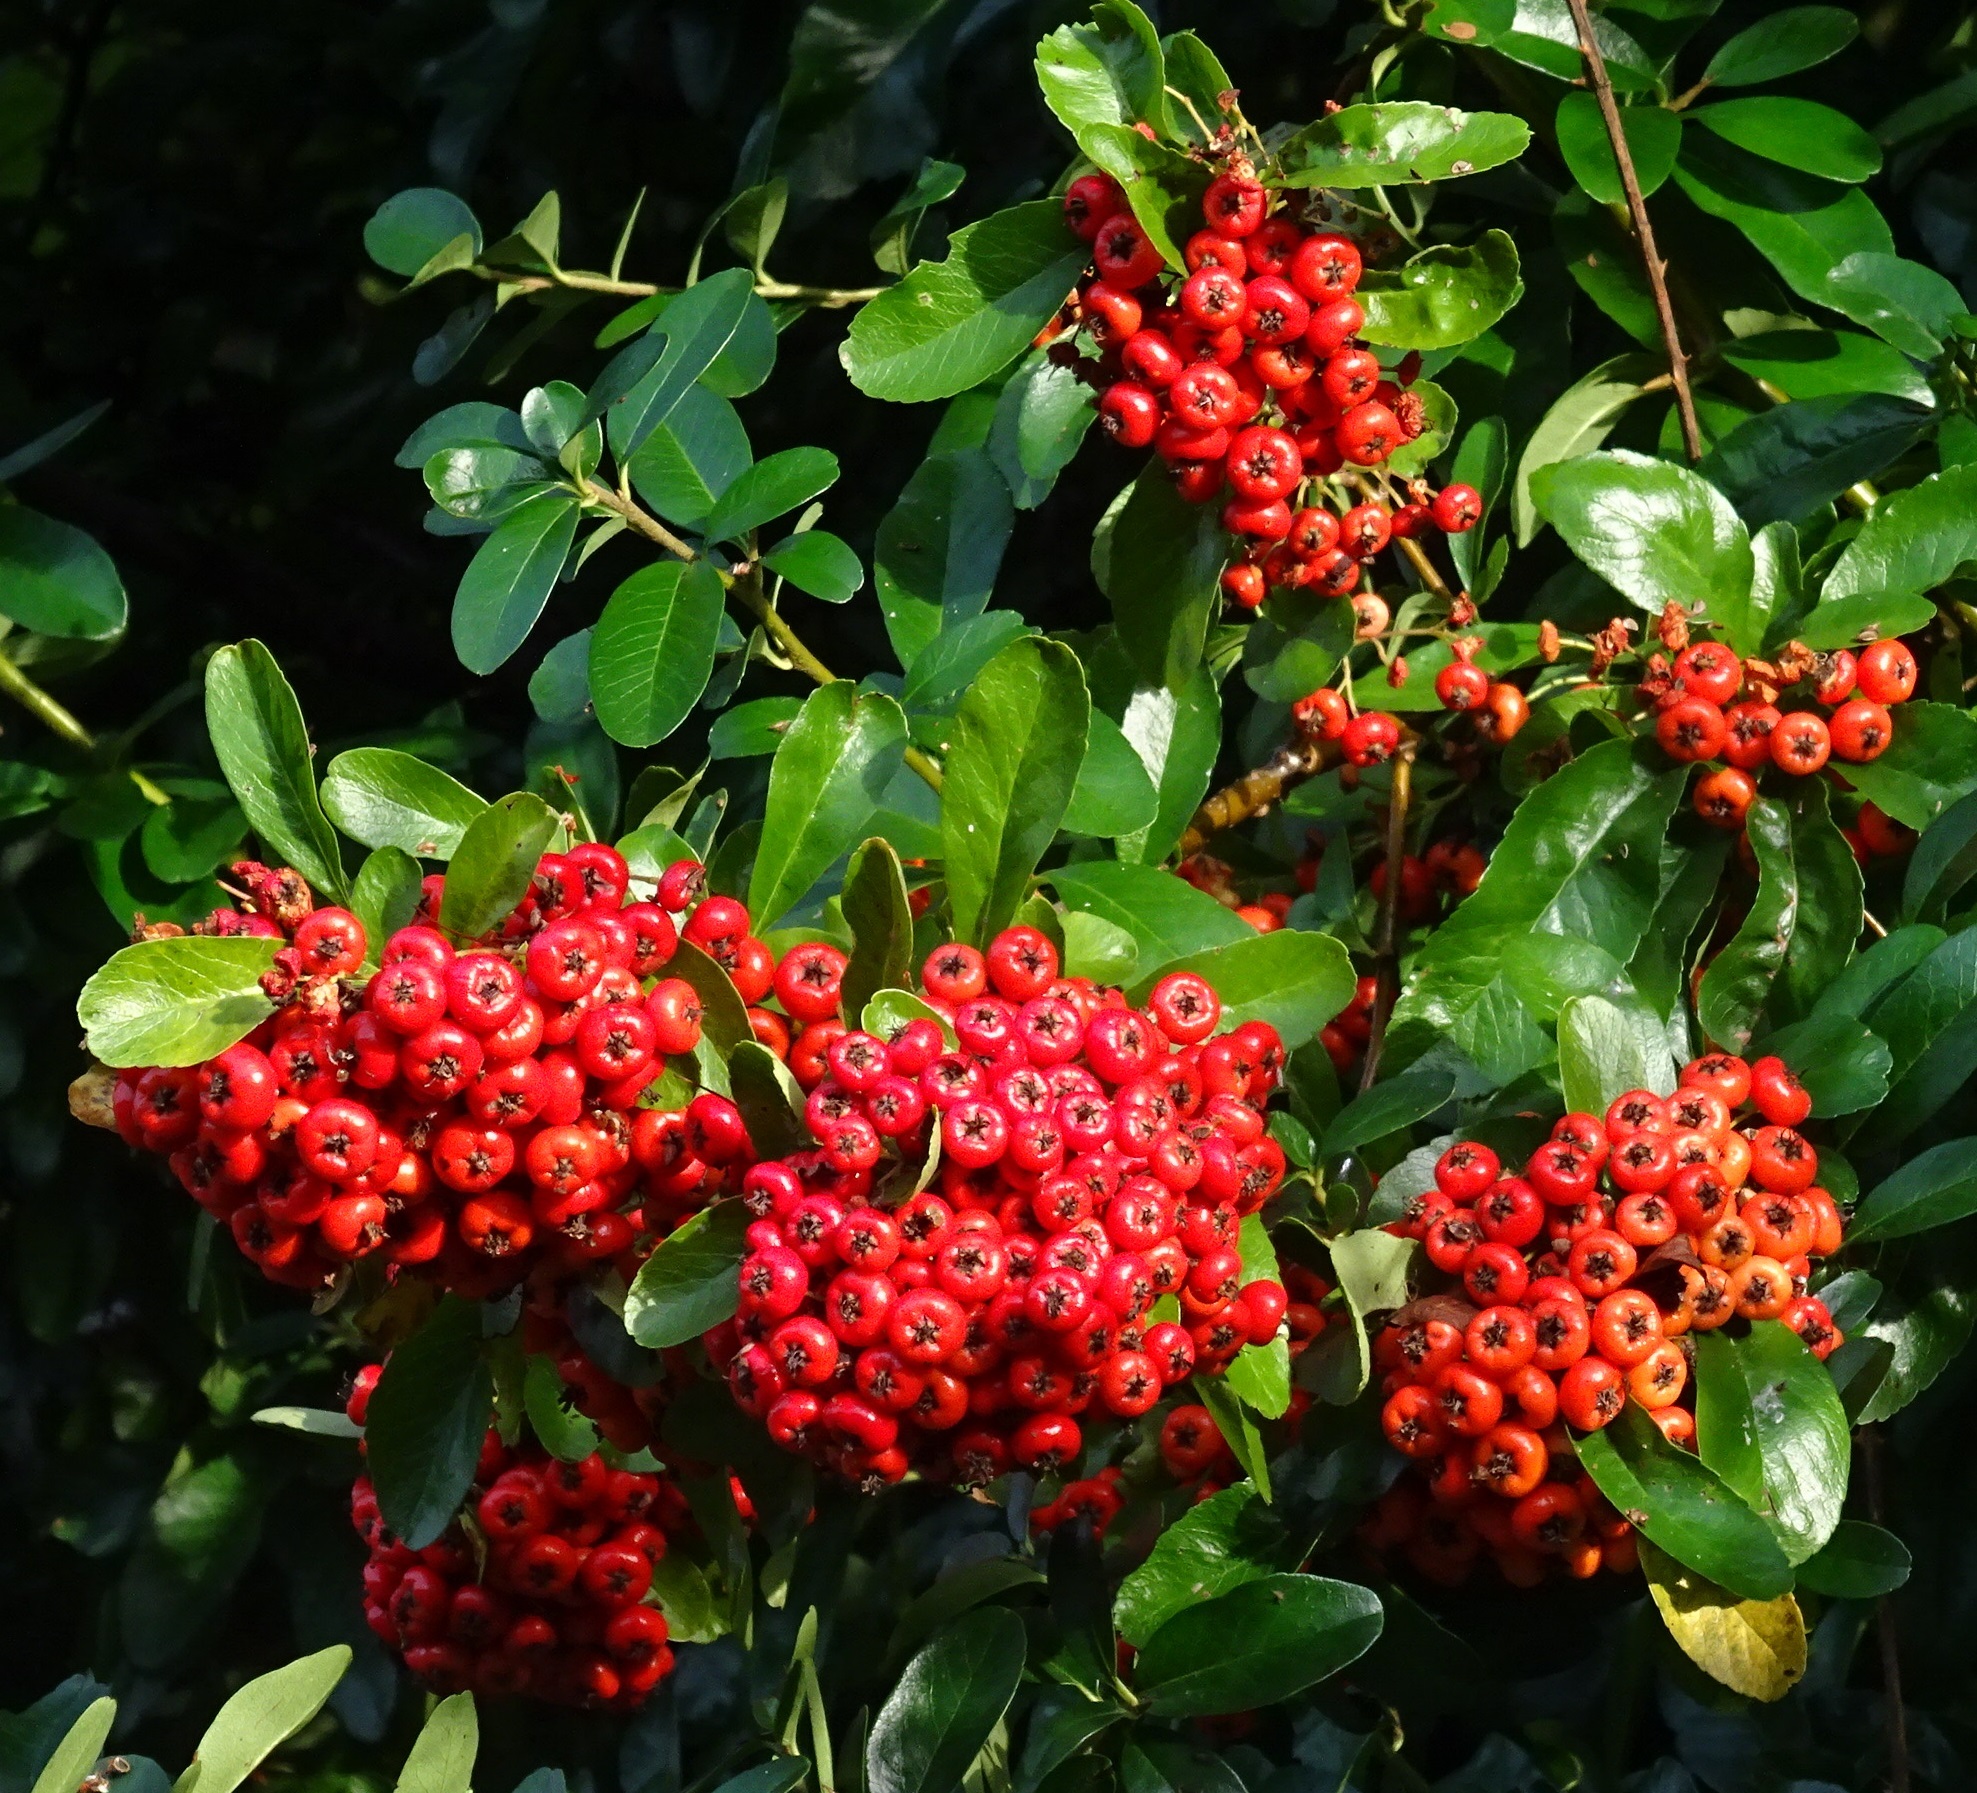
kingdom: Plantae
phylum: Tracheophyta
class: Magnoliopsida
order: Rosales
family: Rosaceae
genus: Pyracantha
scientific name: Pyracantha coccinea
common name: Firethorn
